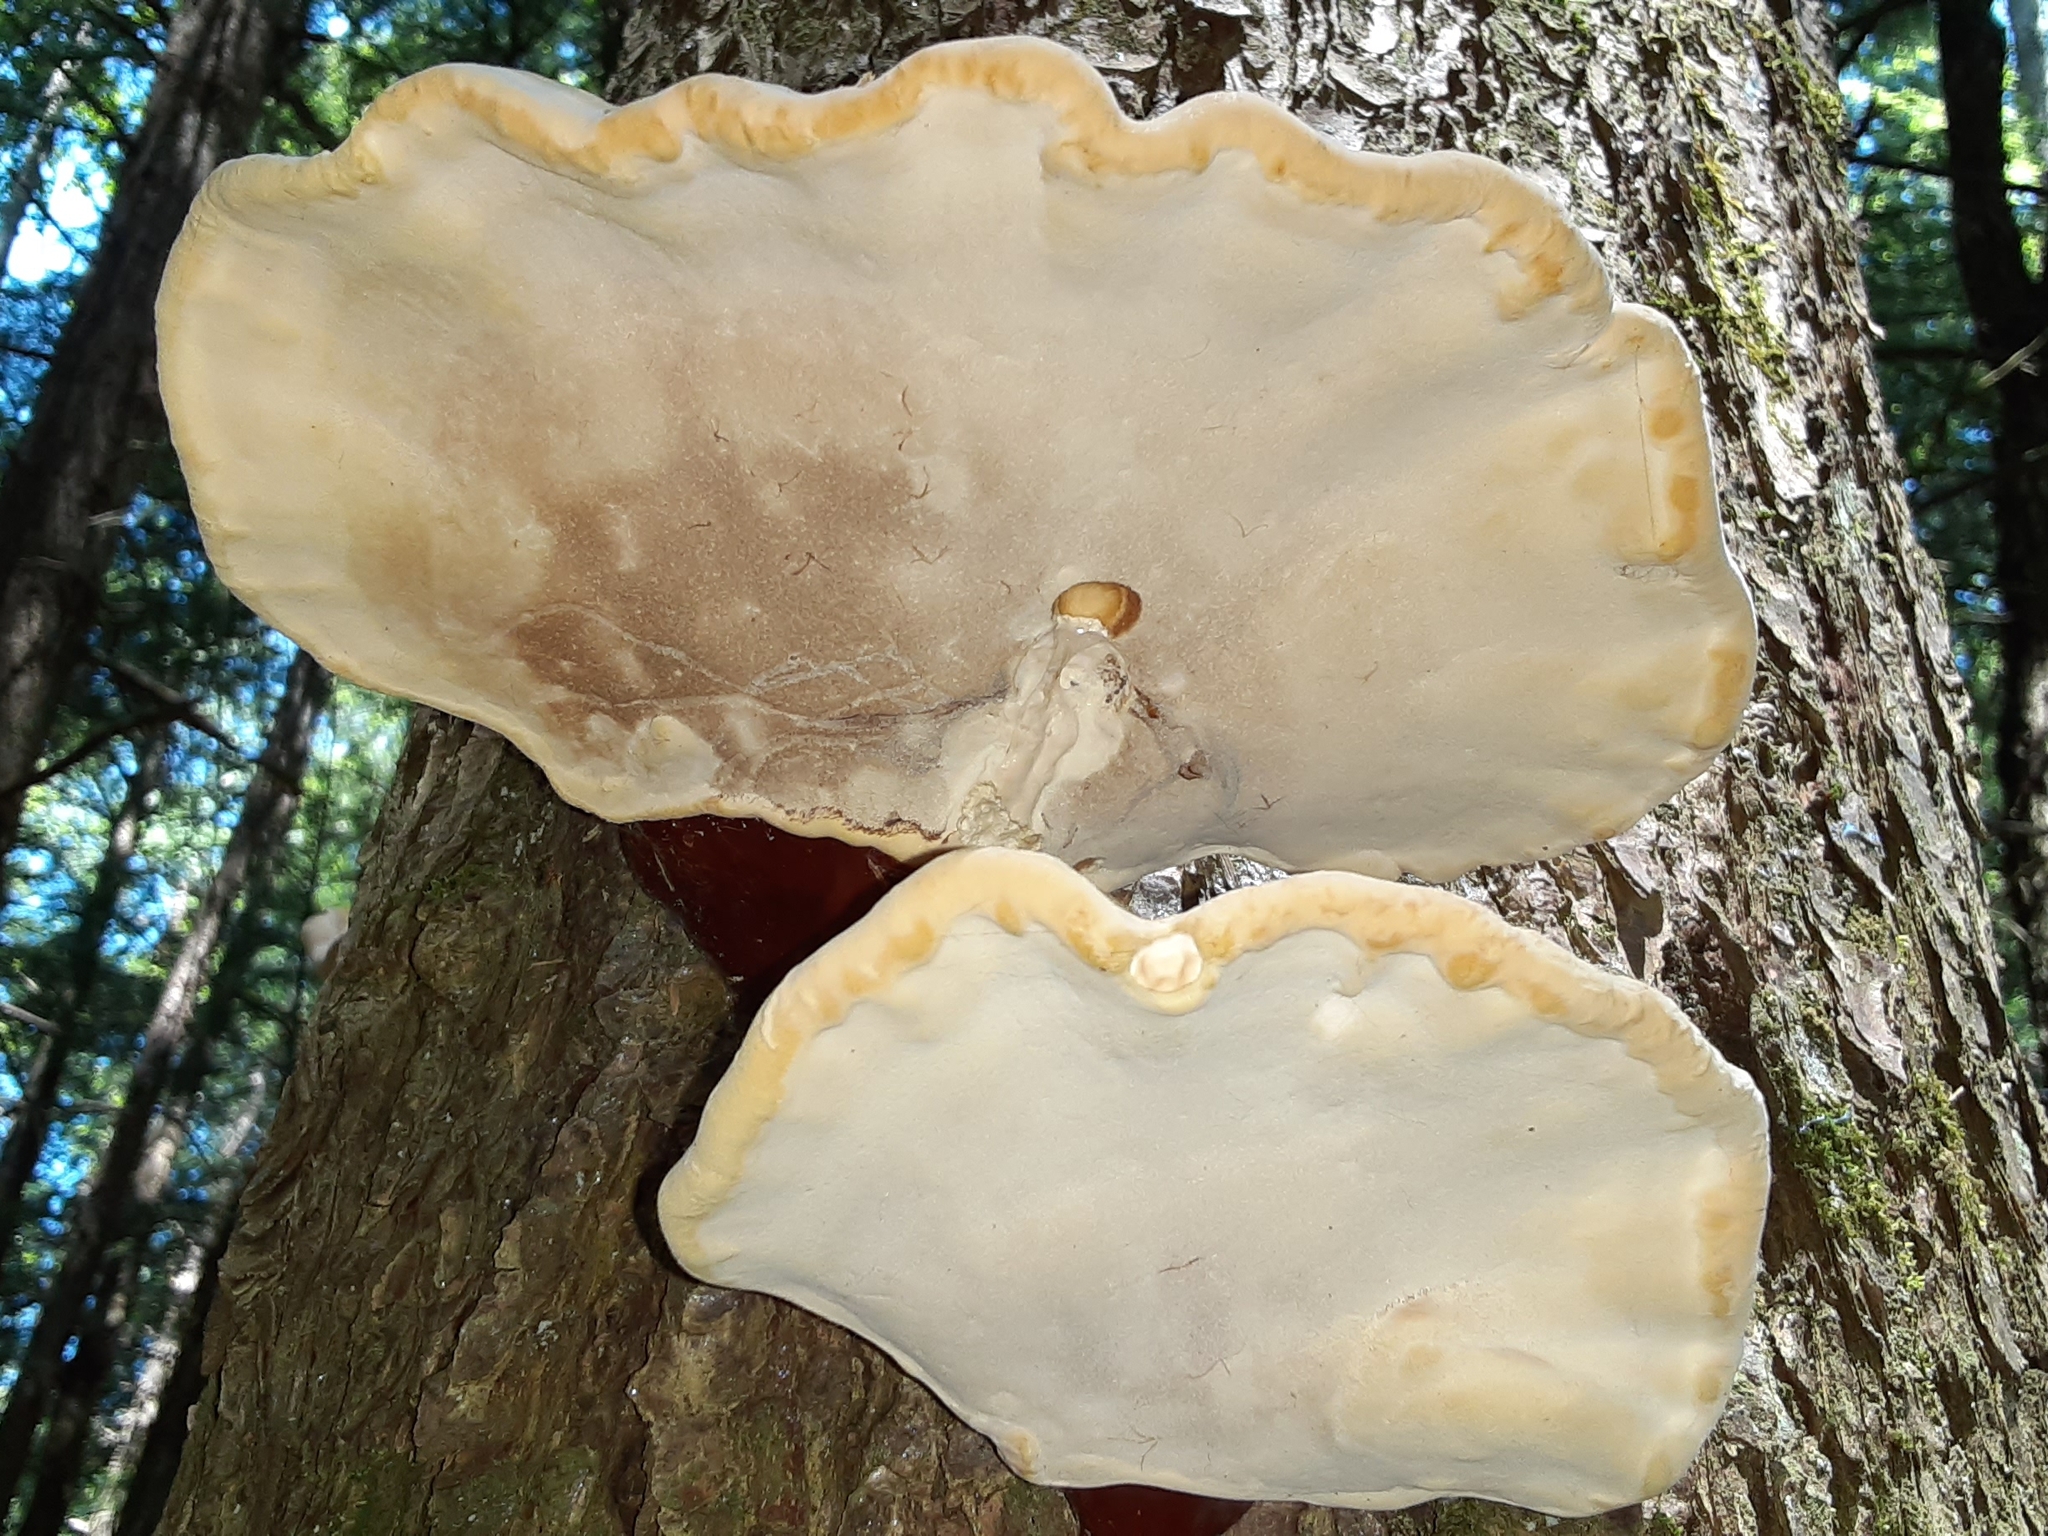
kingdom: Fungi
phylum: Basidiomycota
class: Agaricomycetes
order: Polyporales
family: Polyporaceae
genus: Ganoderma
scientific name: Ganoderma tsugae
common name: Hemlock varnish shelf
